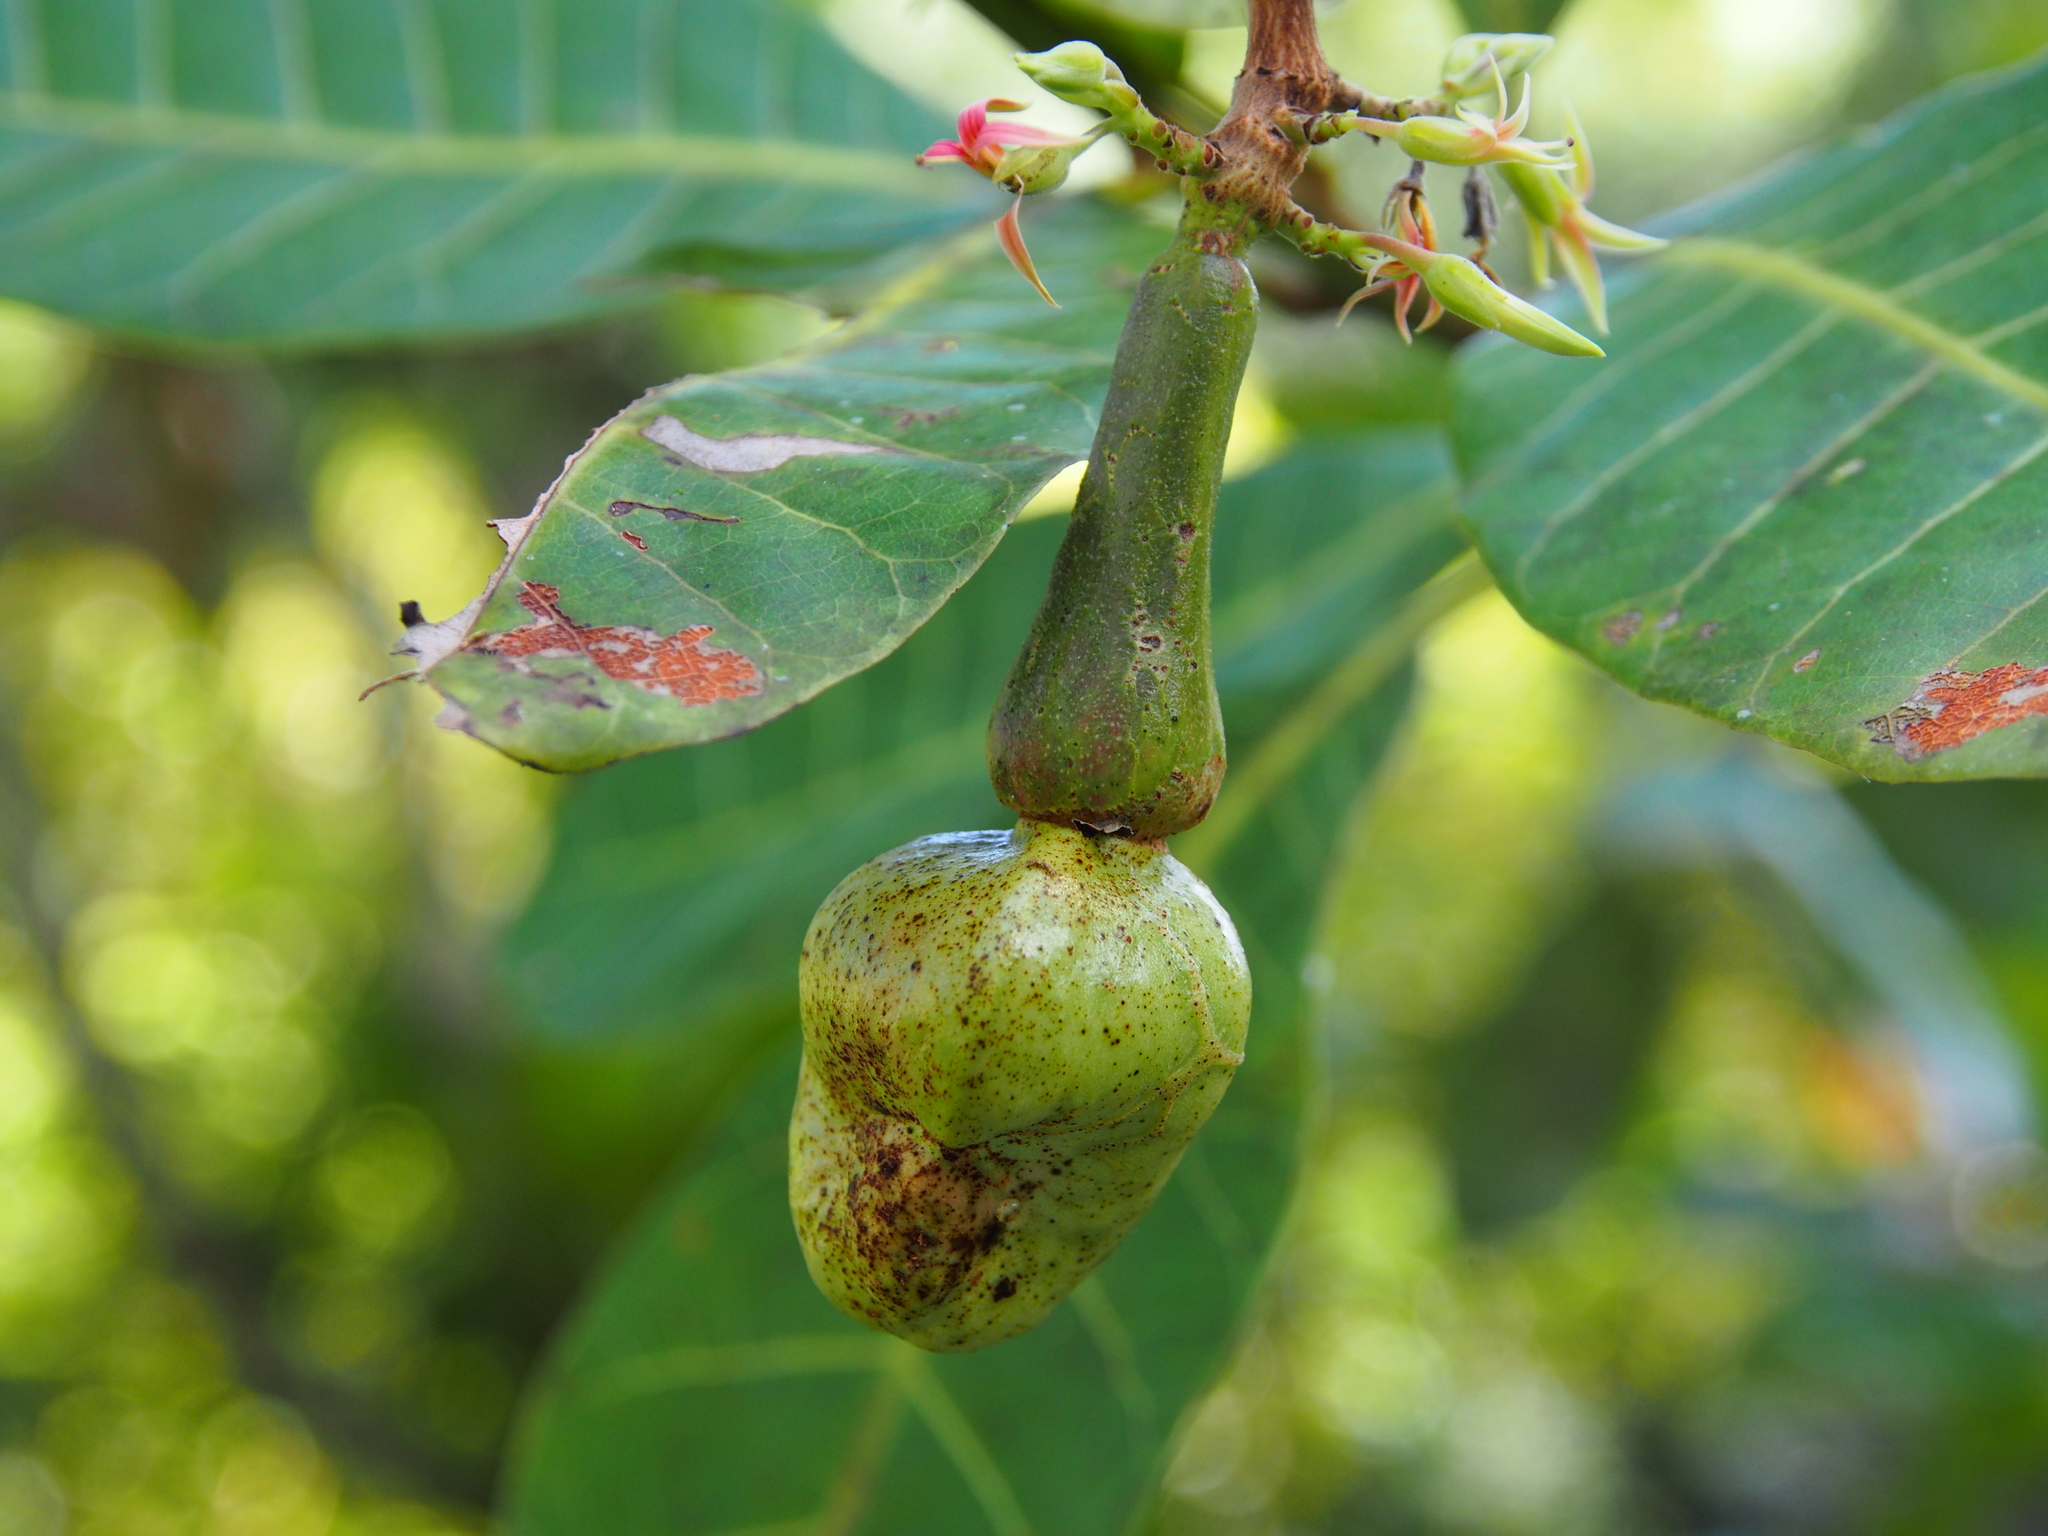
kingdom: Plantae
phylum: Tracheophyta
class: Magnoliopsida
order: Sapindales
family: Anacardiaceae
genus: Anacardium
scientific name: Anacardium occidentale
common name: Cashew
